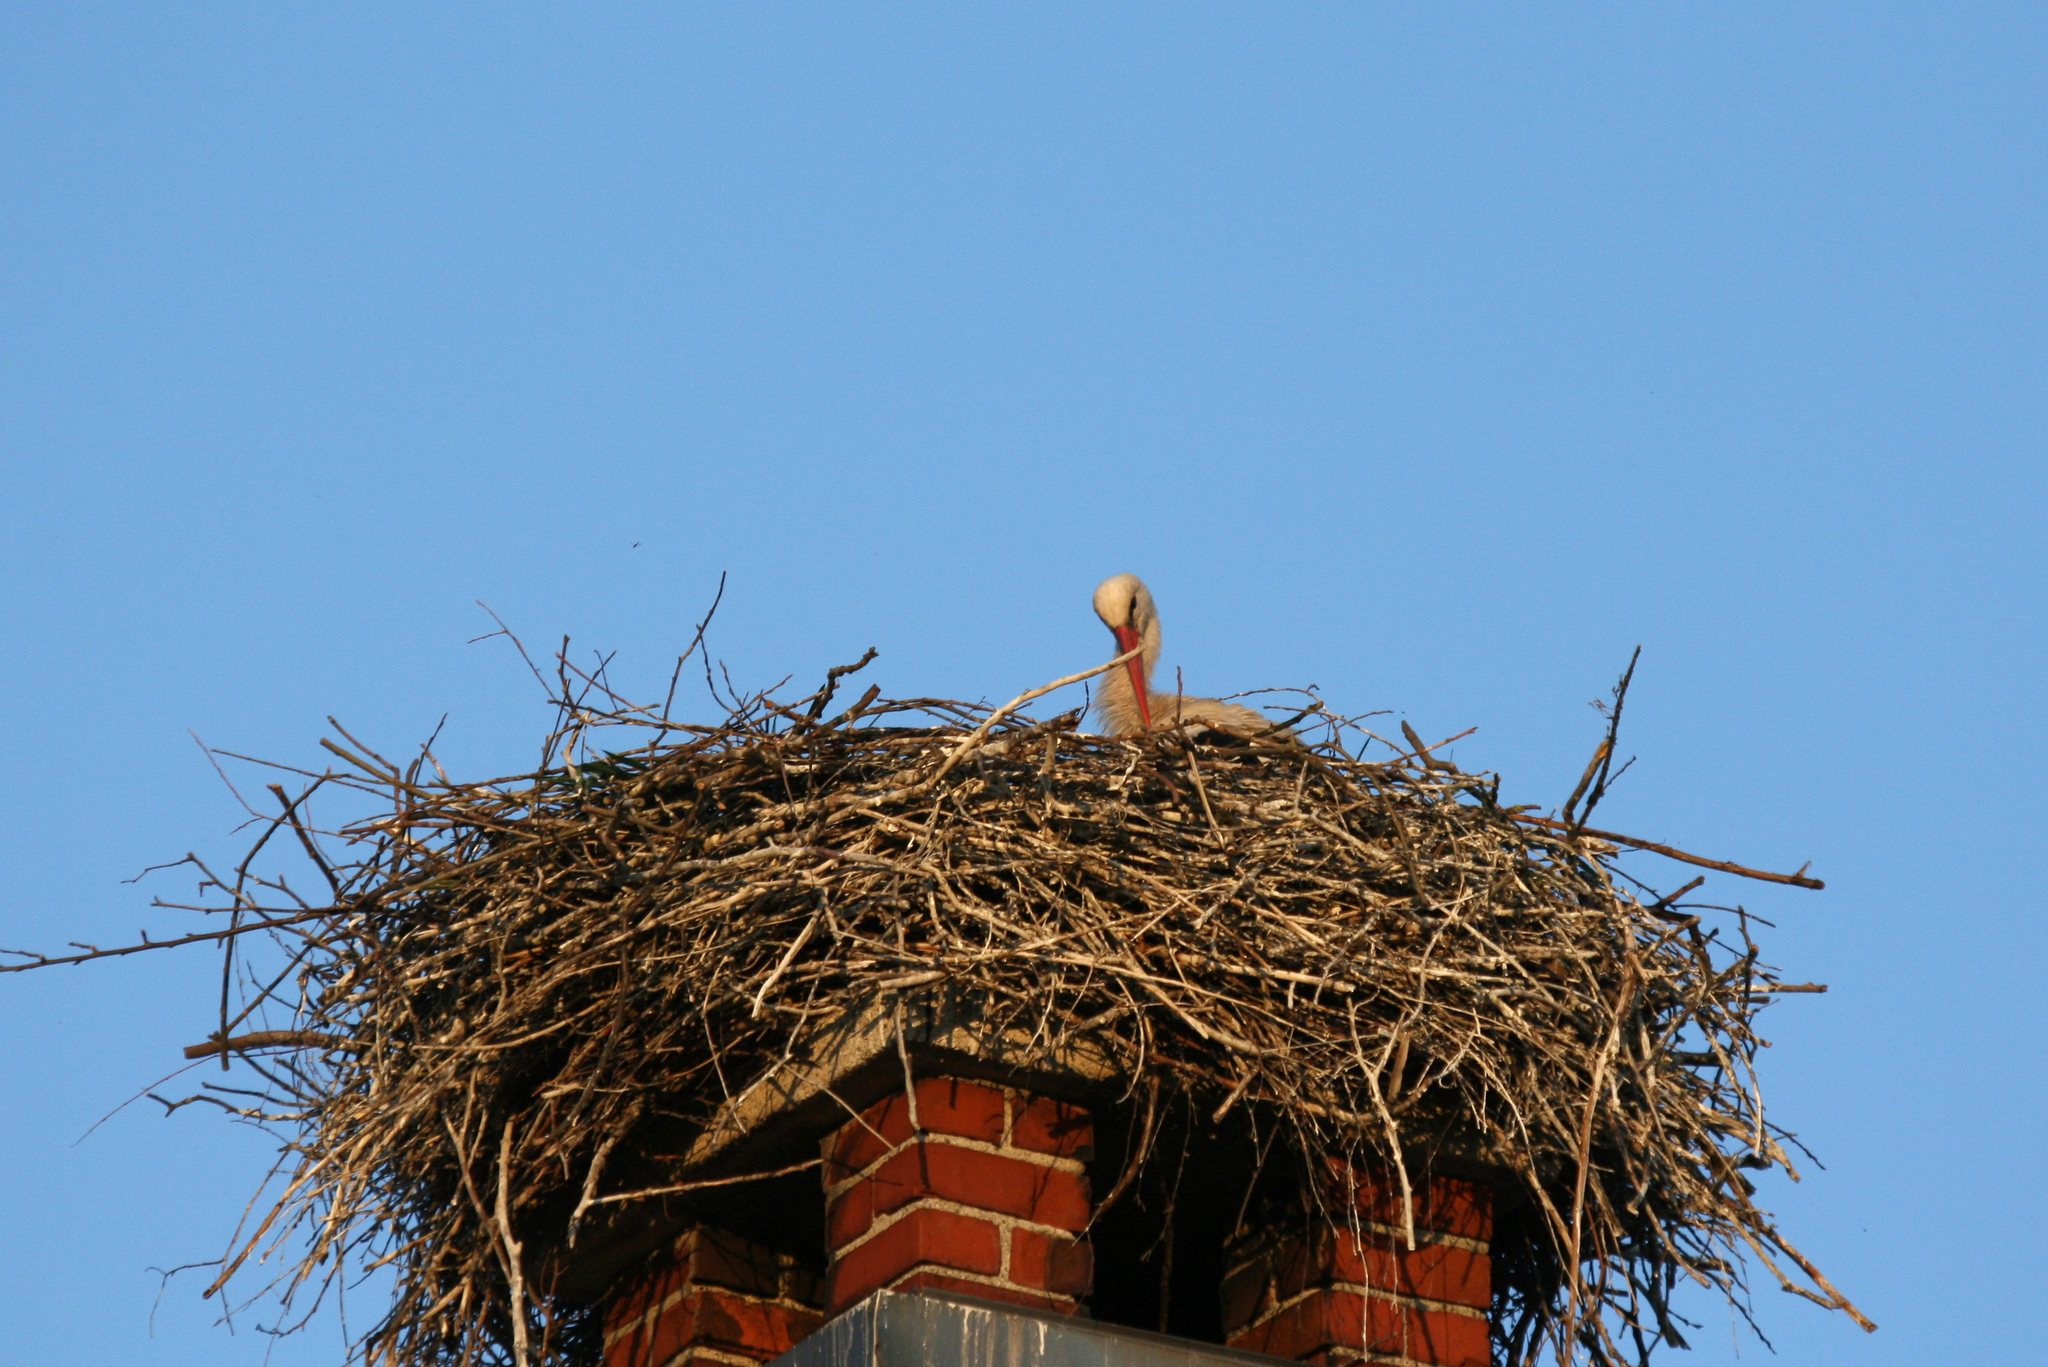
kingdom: Animalia
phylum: Chordata
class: Aves
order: Ciconiiformes
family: Ciconiidae
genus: Ciconia
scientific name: Ciconia ciconia
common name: White stork
